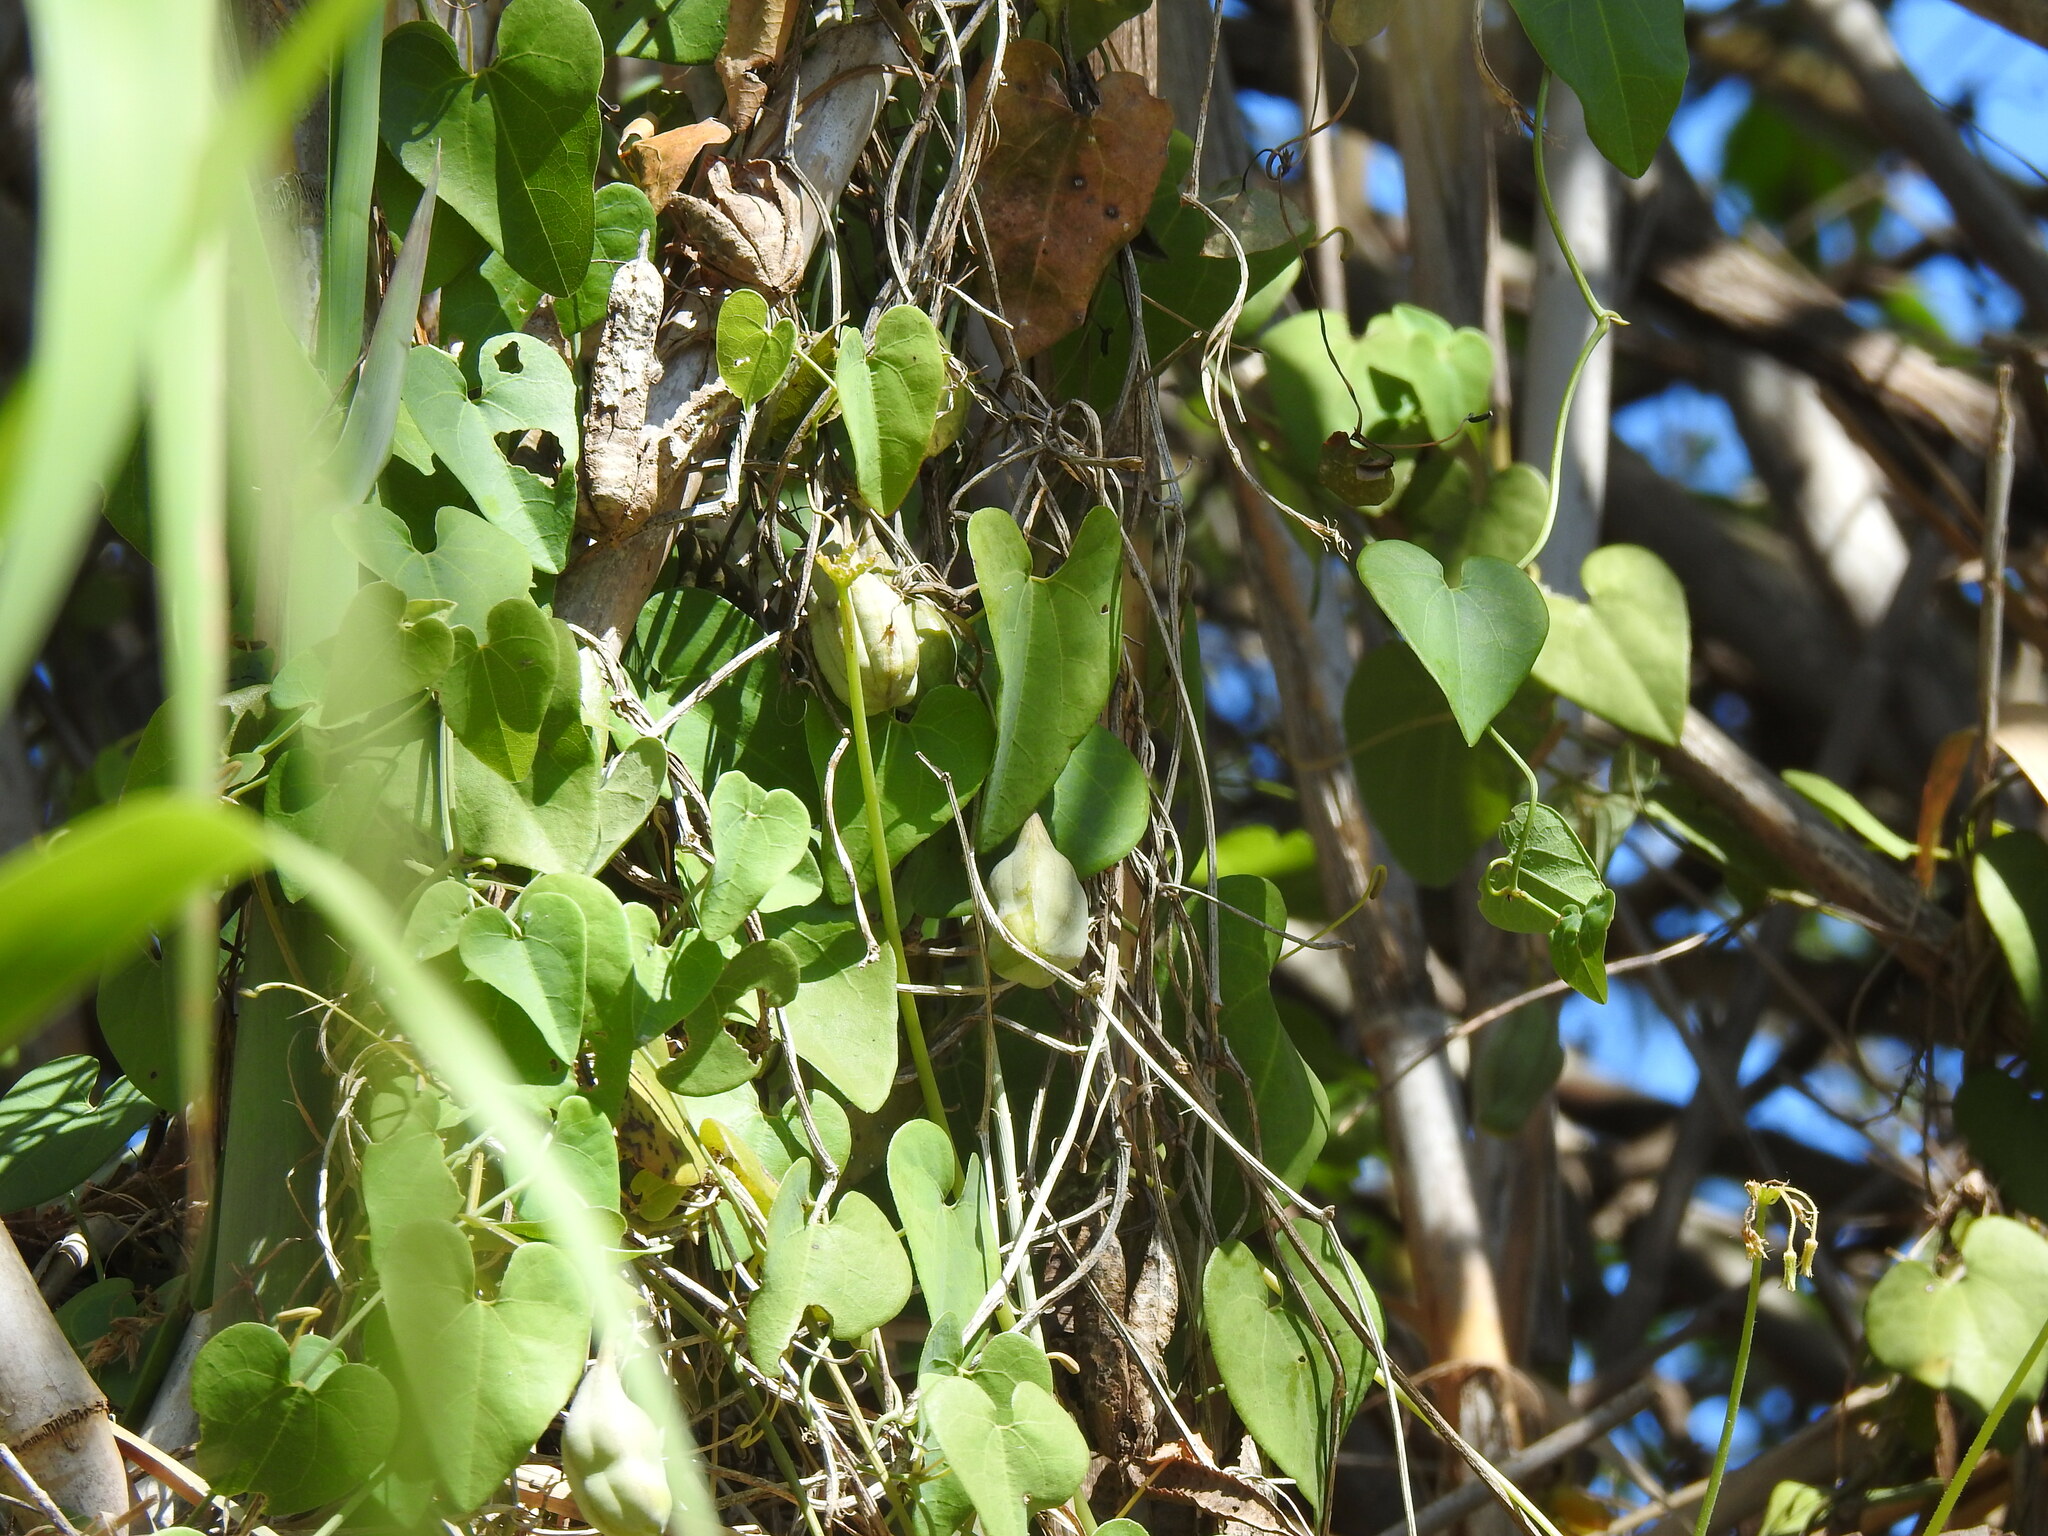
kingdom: Plantae
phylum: Tracheophyta
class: Magnoliopsida
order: Piperales
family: Aristolochiaceae
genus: Aristolochia
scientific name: Aristolochia baetica
